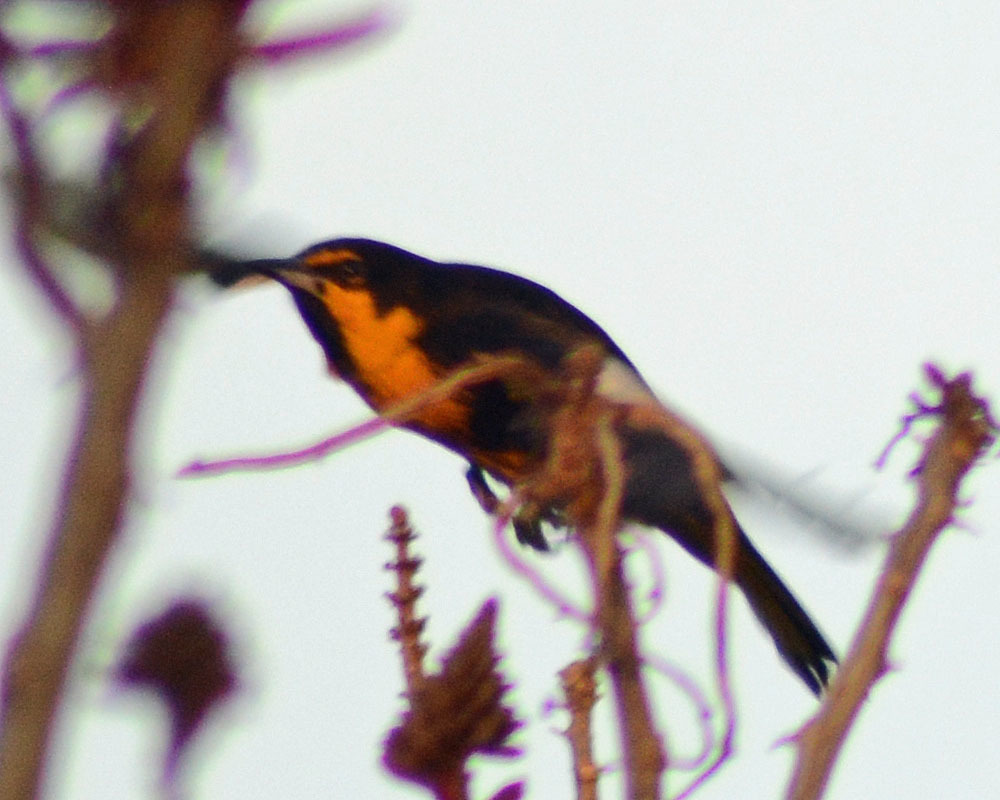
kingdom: Animalia
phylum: Chordata
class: Aves
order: Passeriformes
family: Icteridae
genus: Icterus
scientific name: Icterus abeillei
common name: Black-backed oriole
